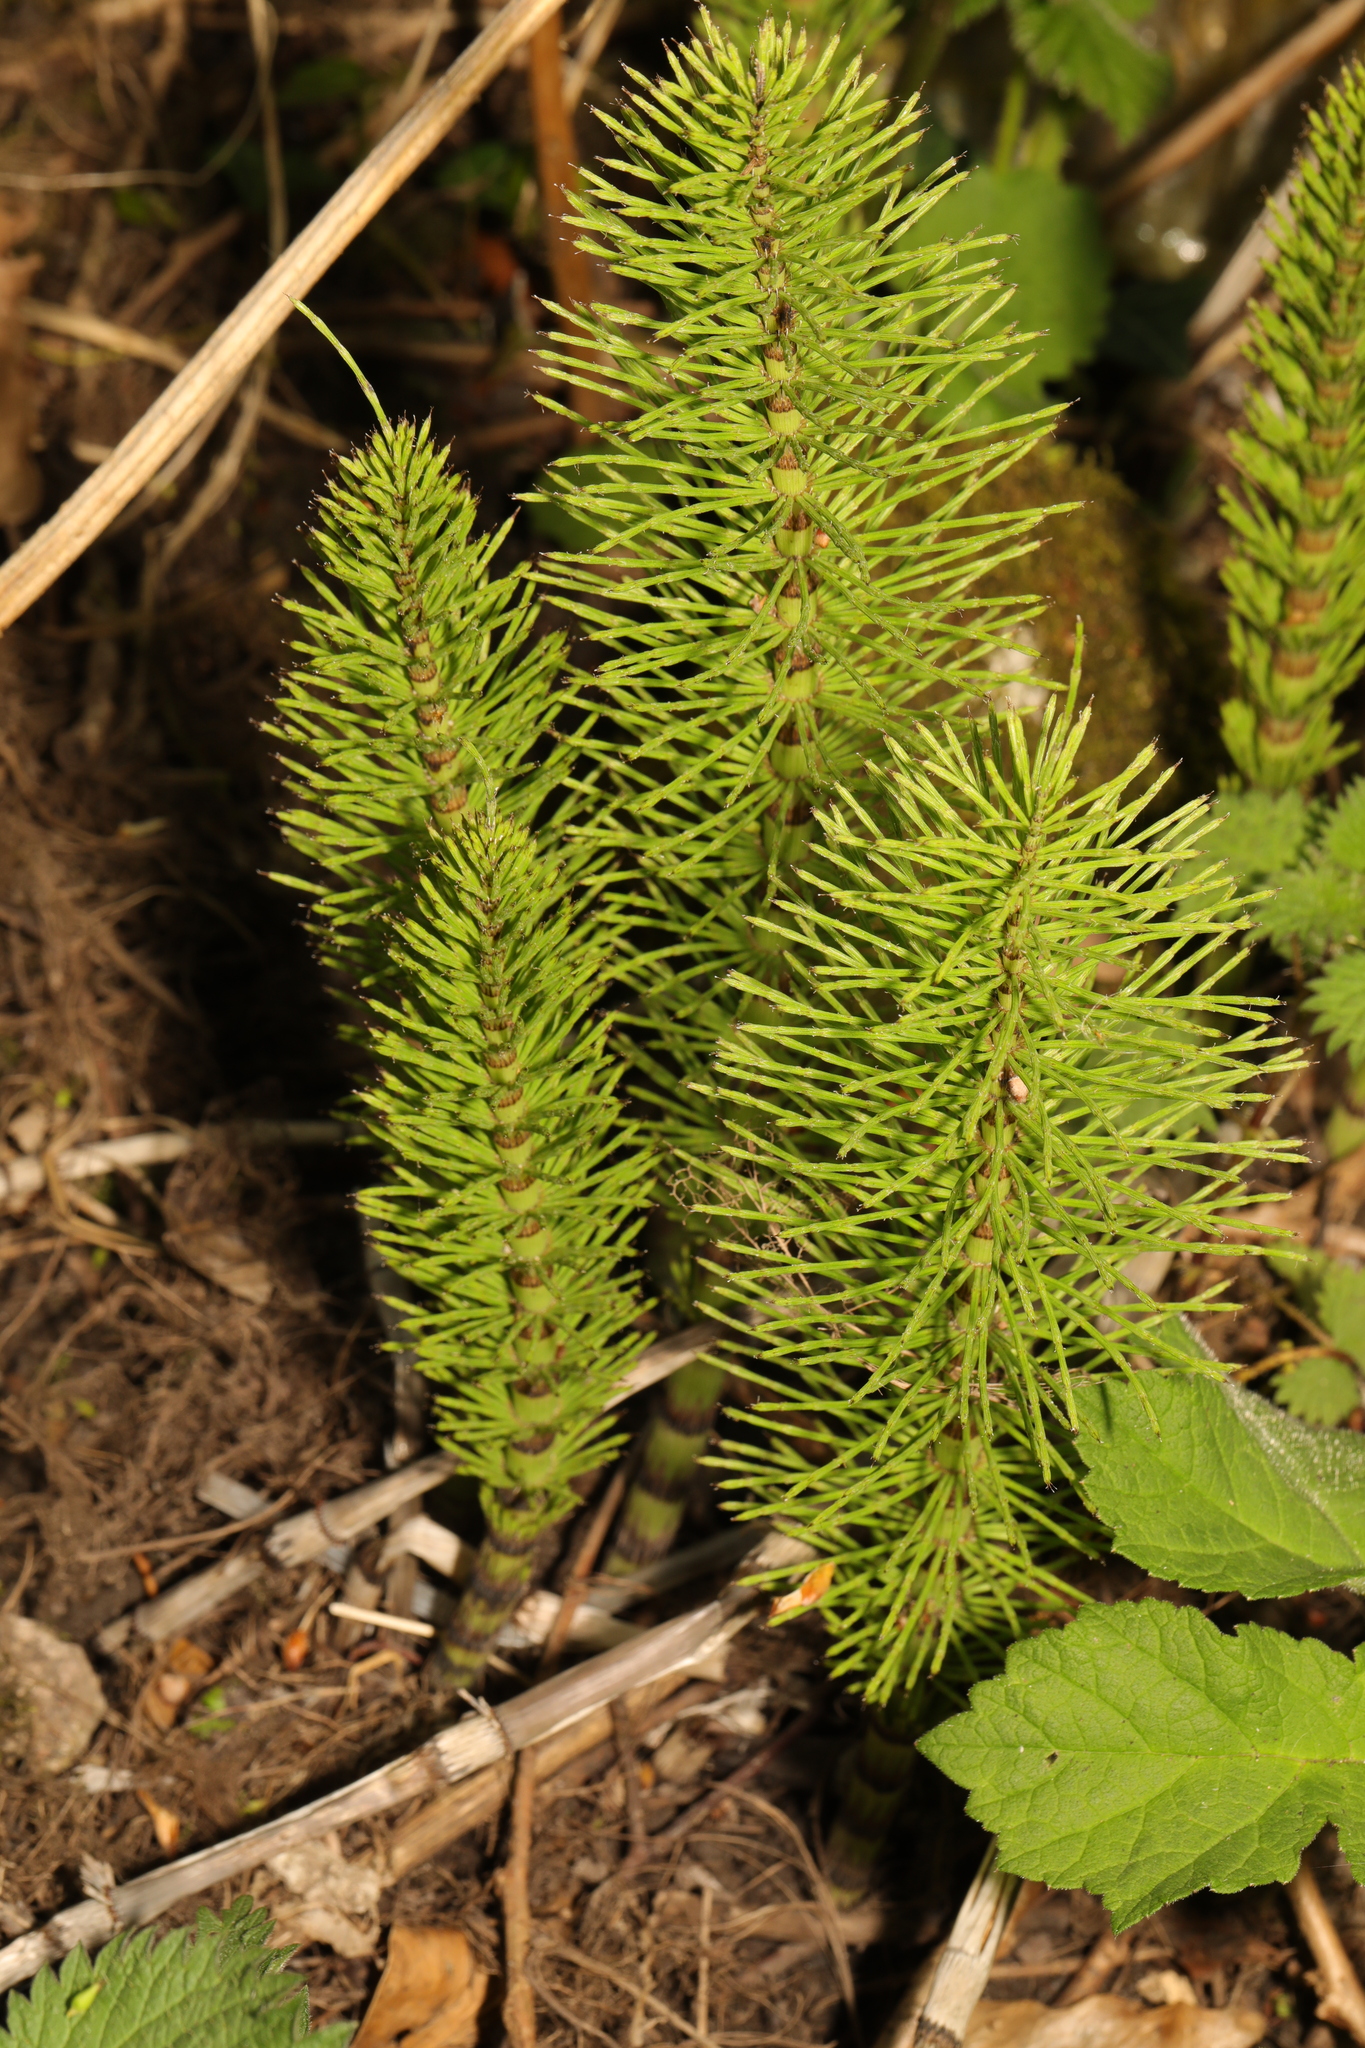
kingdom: Plantae
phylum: Tracheophyta
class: Polypodiopsida
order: Equisetales
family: Equisetaceae
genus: Equisetum
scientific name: Equisetum telmateia
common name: Great horsetail
